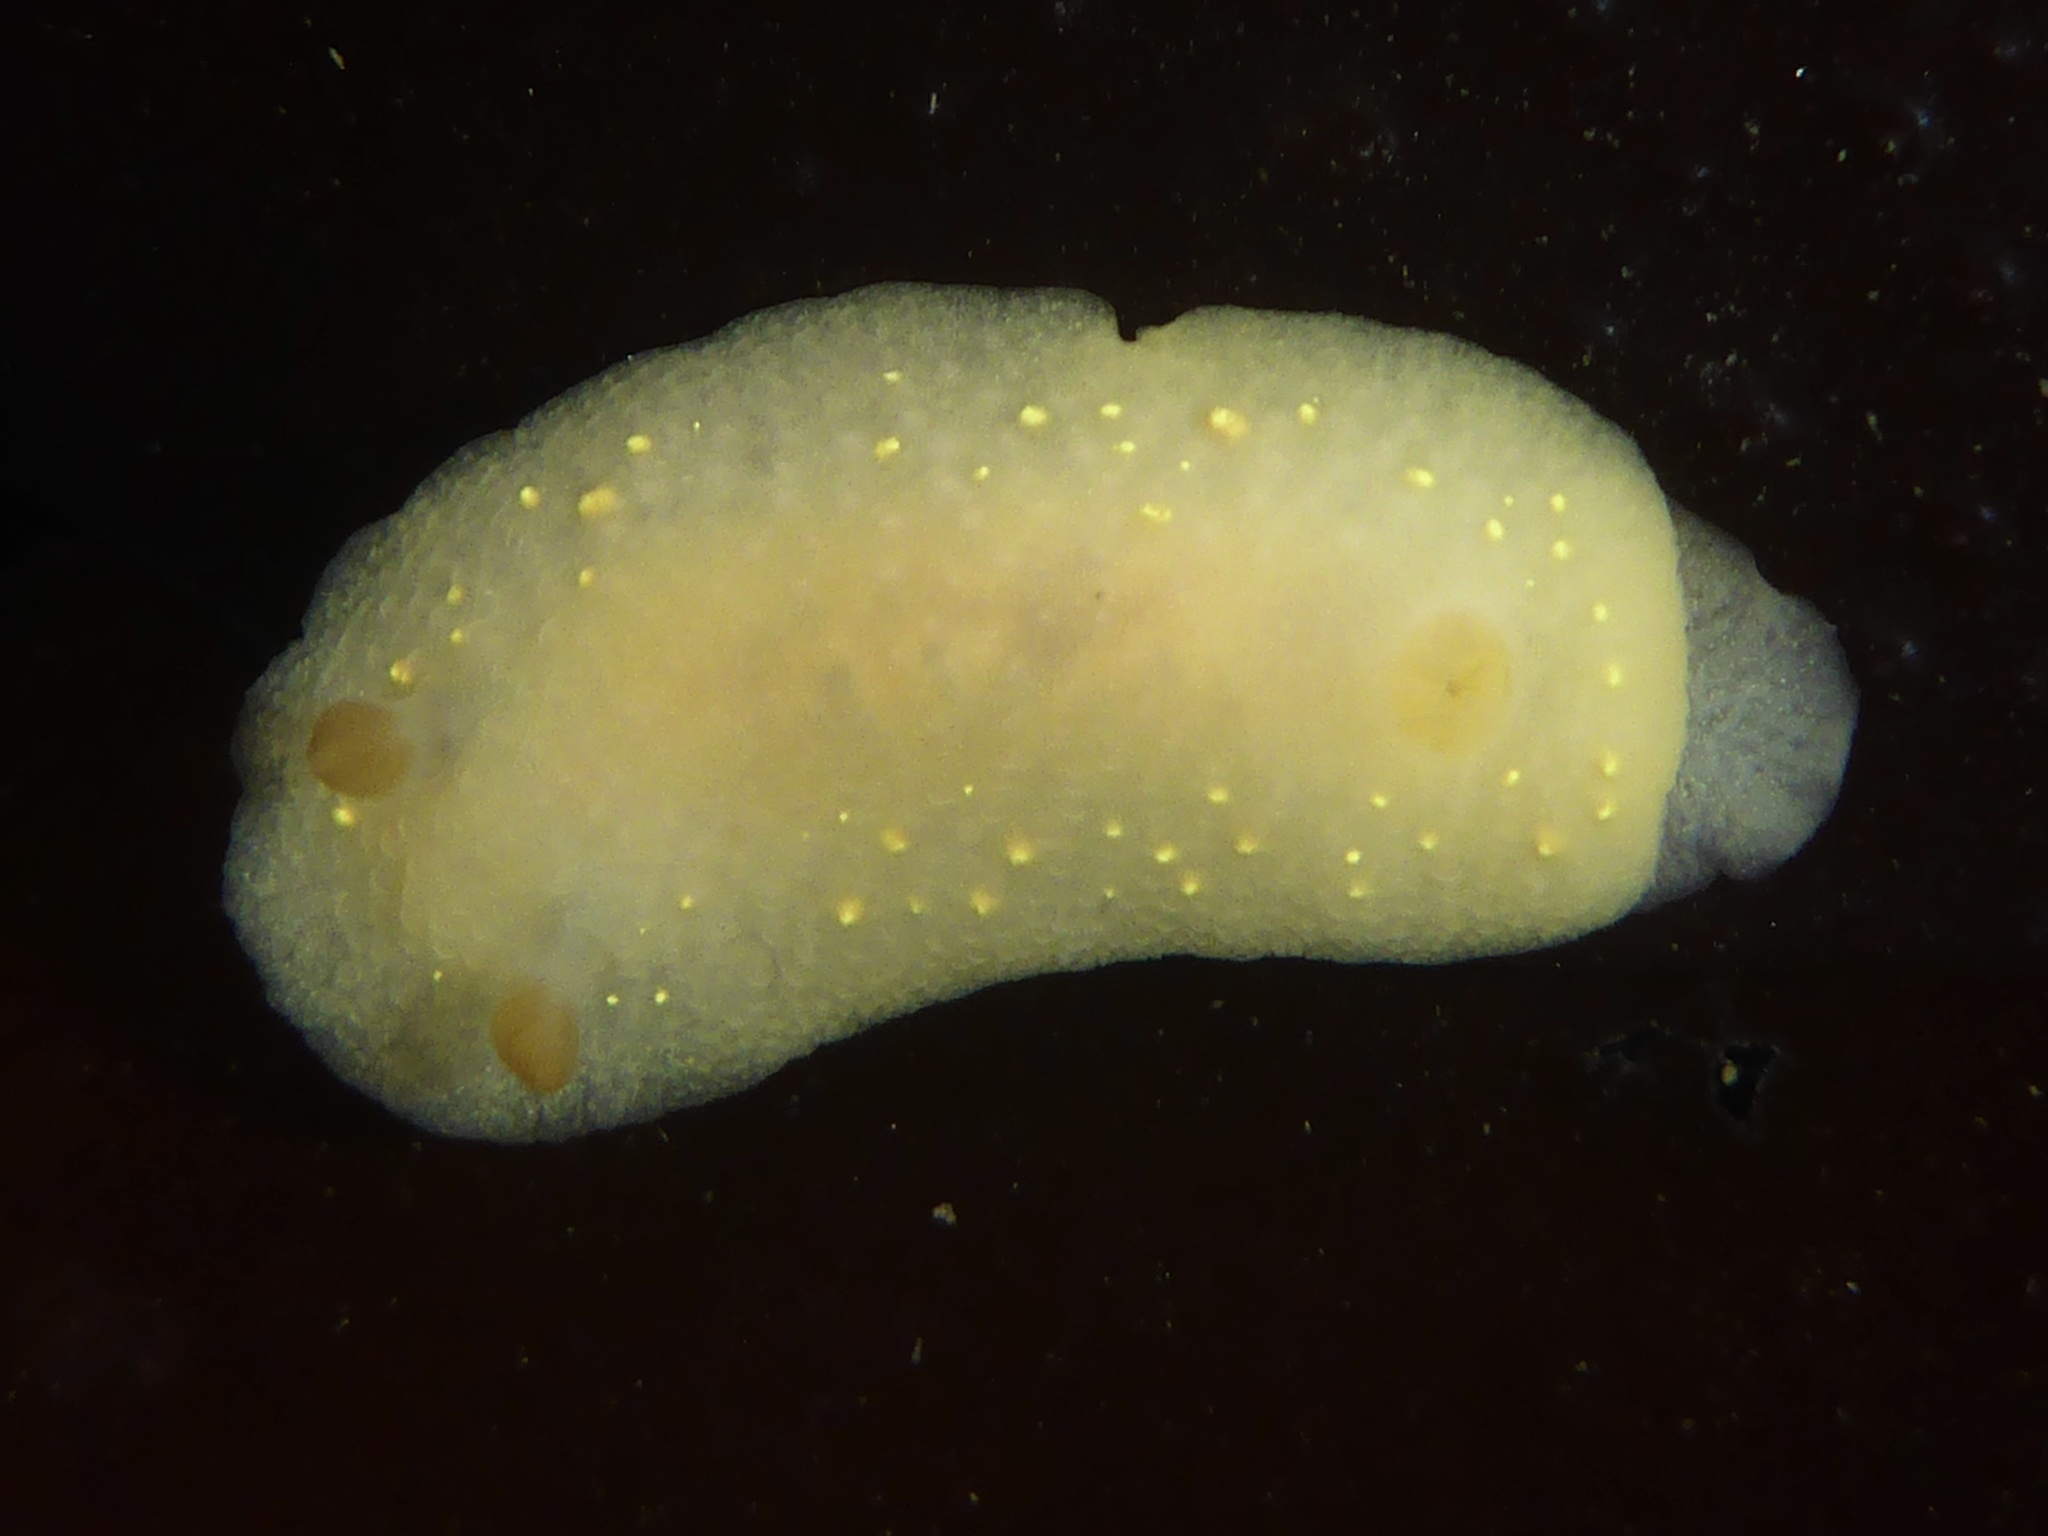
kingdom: Animalia
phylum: Mollusca
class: Gastropoda
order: Nudibranchia
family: Cadlinidae
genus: Cadlina
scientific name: Cadlina modesta
